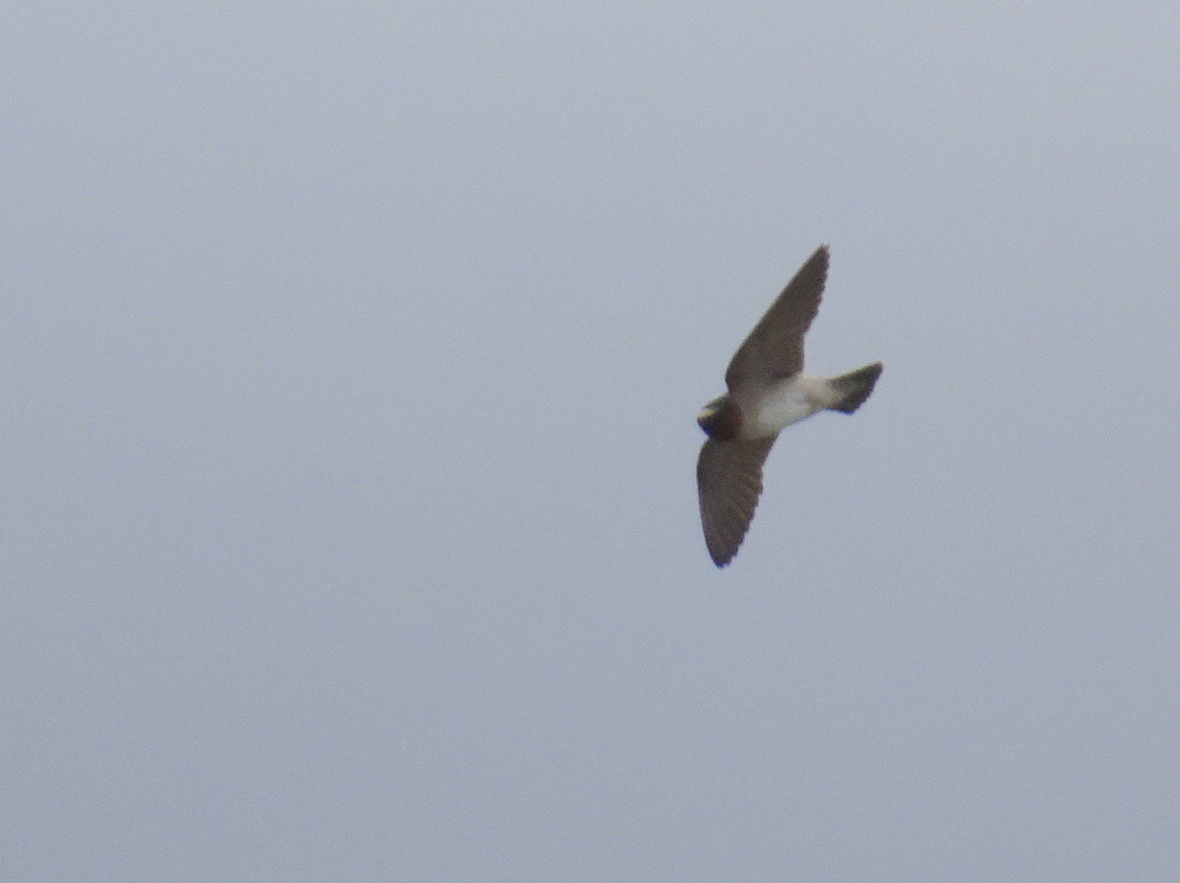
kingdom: Animalia
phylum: Chordata
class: Aves
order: Passeriformes
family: Hirundinidae
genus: Petrochelidon
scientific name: Petrochelidon pyrrhonota
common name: American cliff swallow
